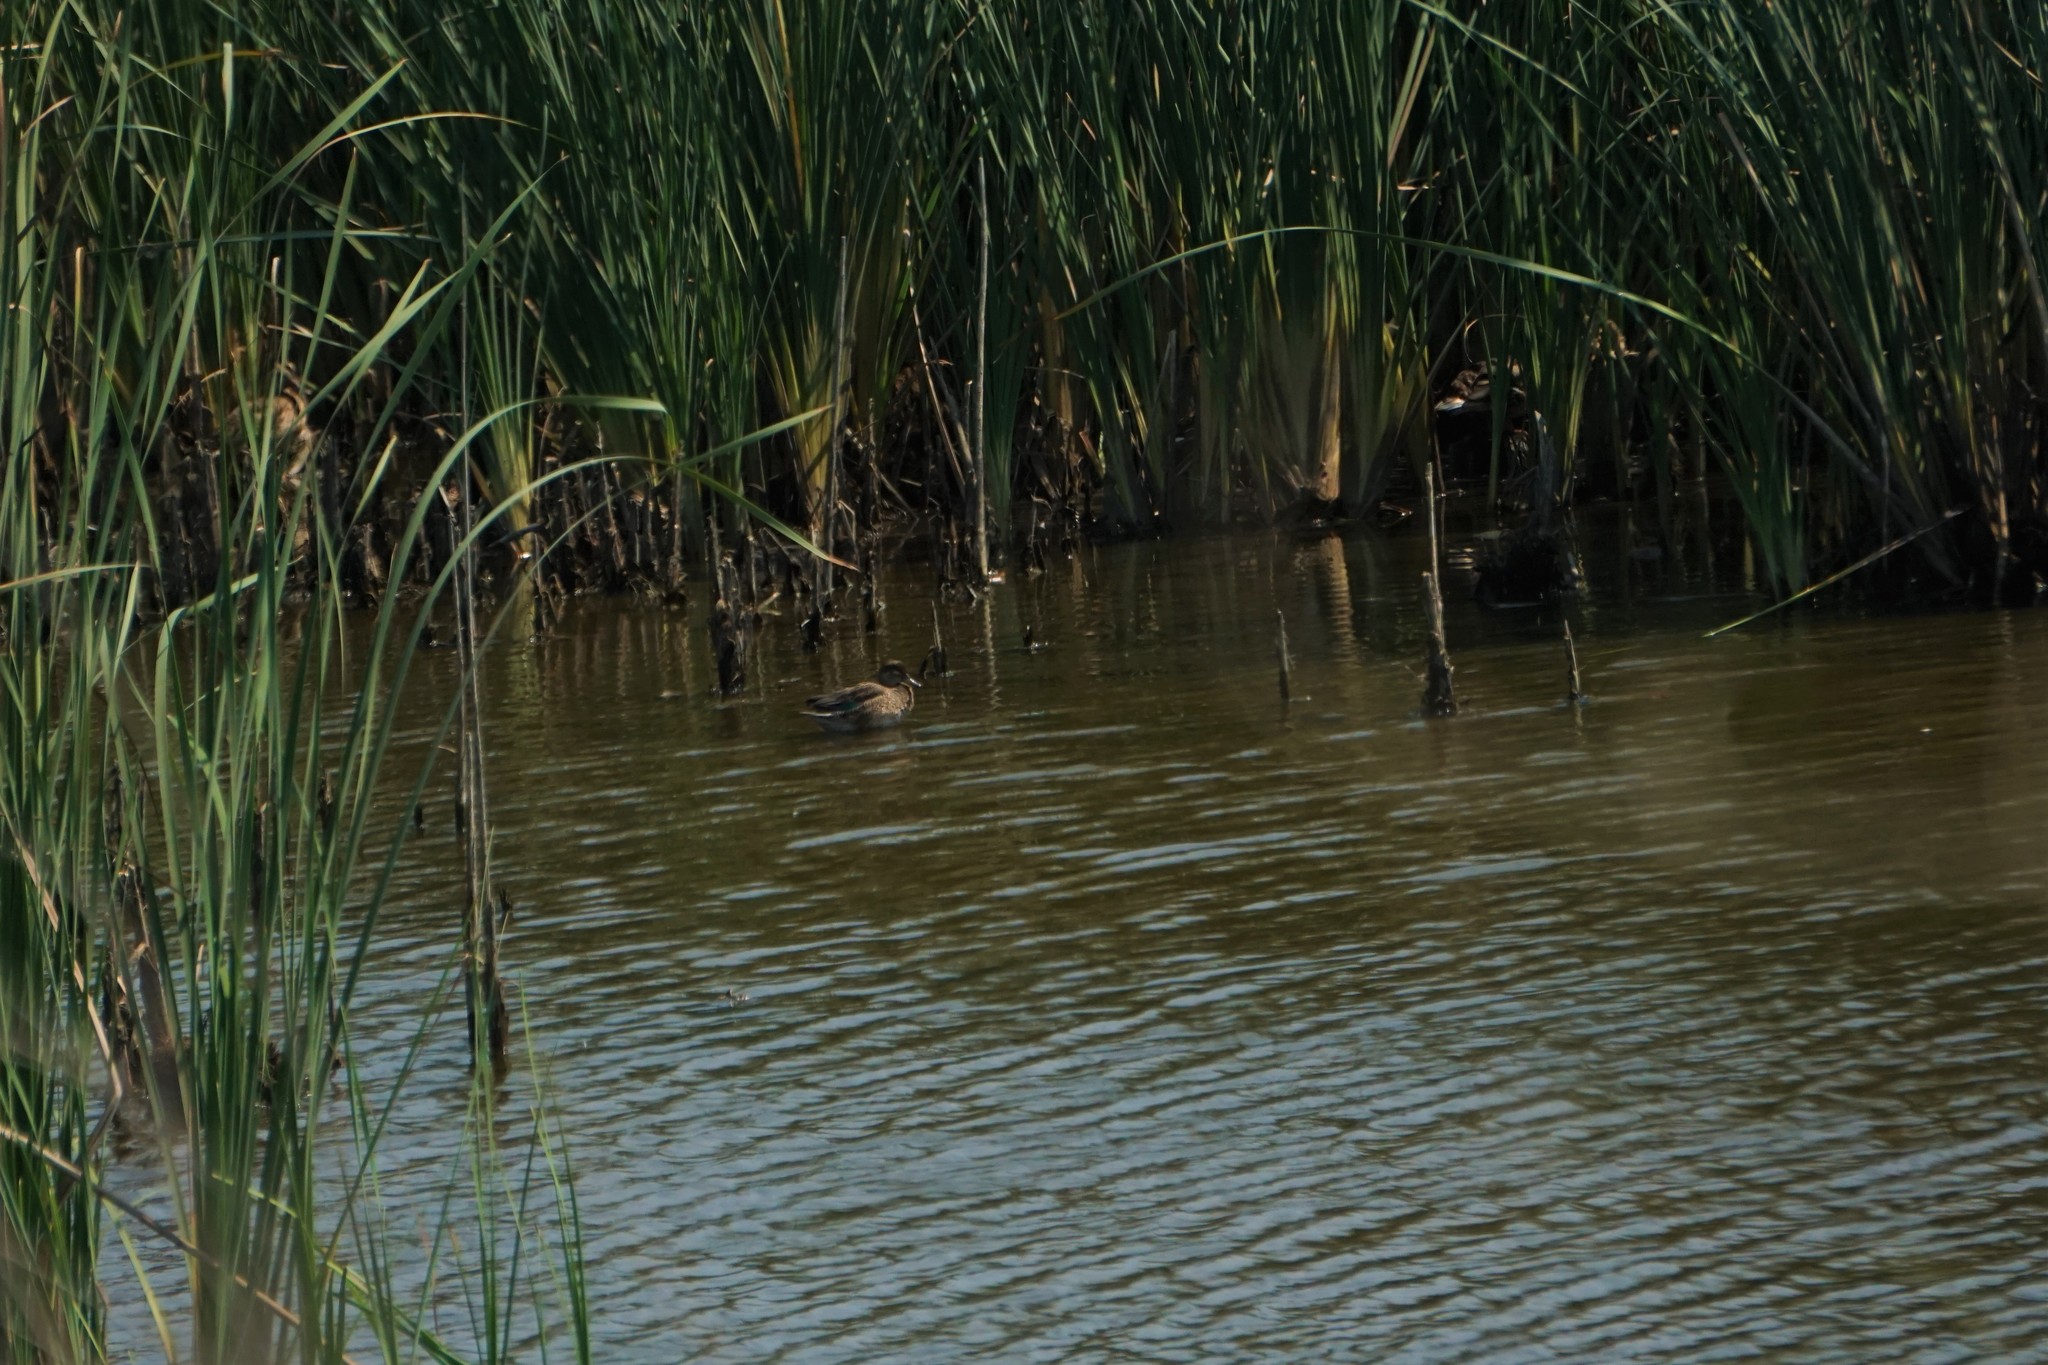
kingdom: Animalia
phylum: Chordata
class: Aves
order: Anseriformes
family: Anatidae
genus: Anas
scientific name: Anas crecca
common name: Eurasian teal
